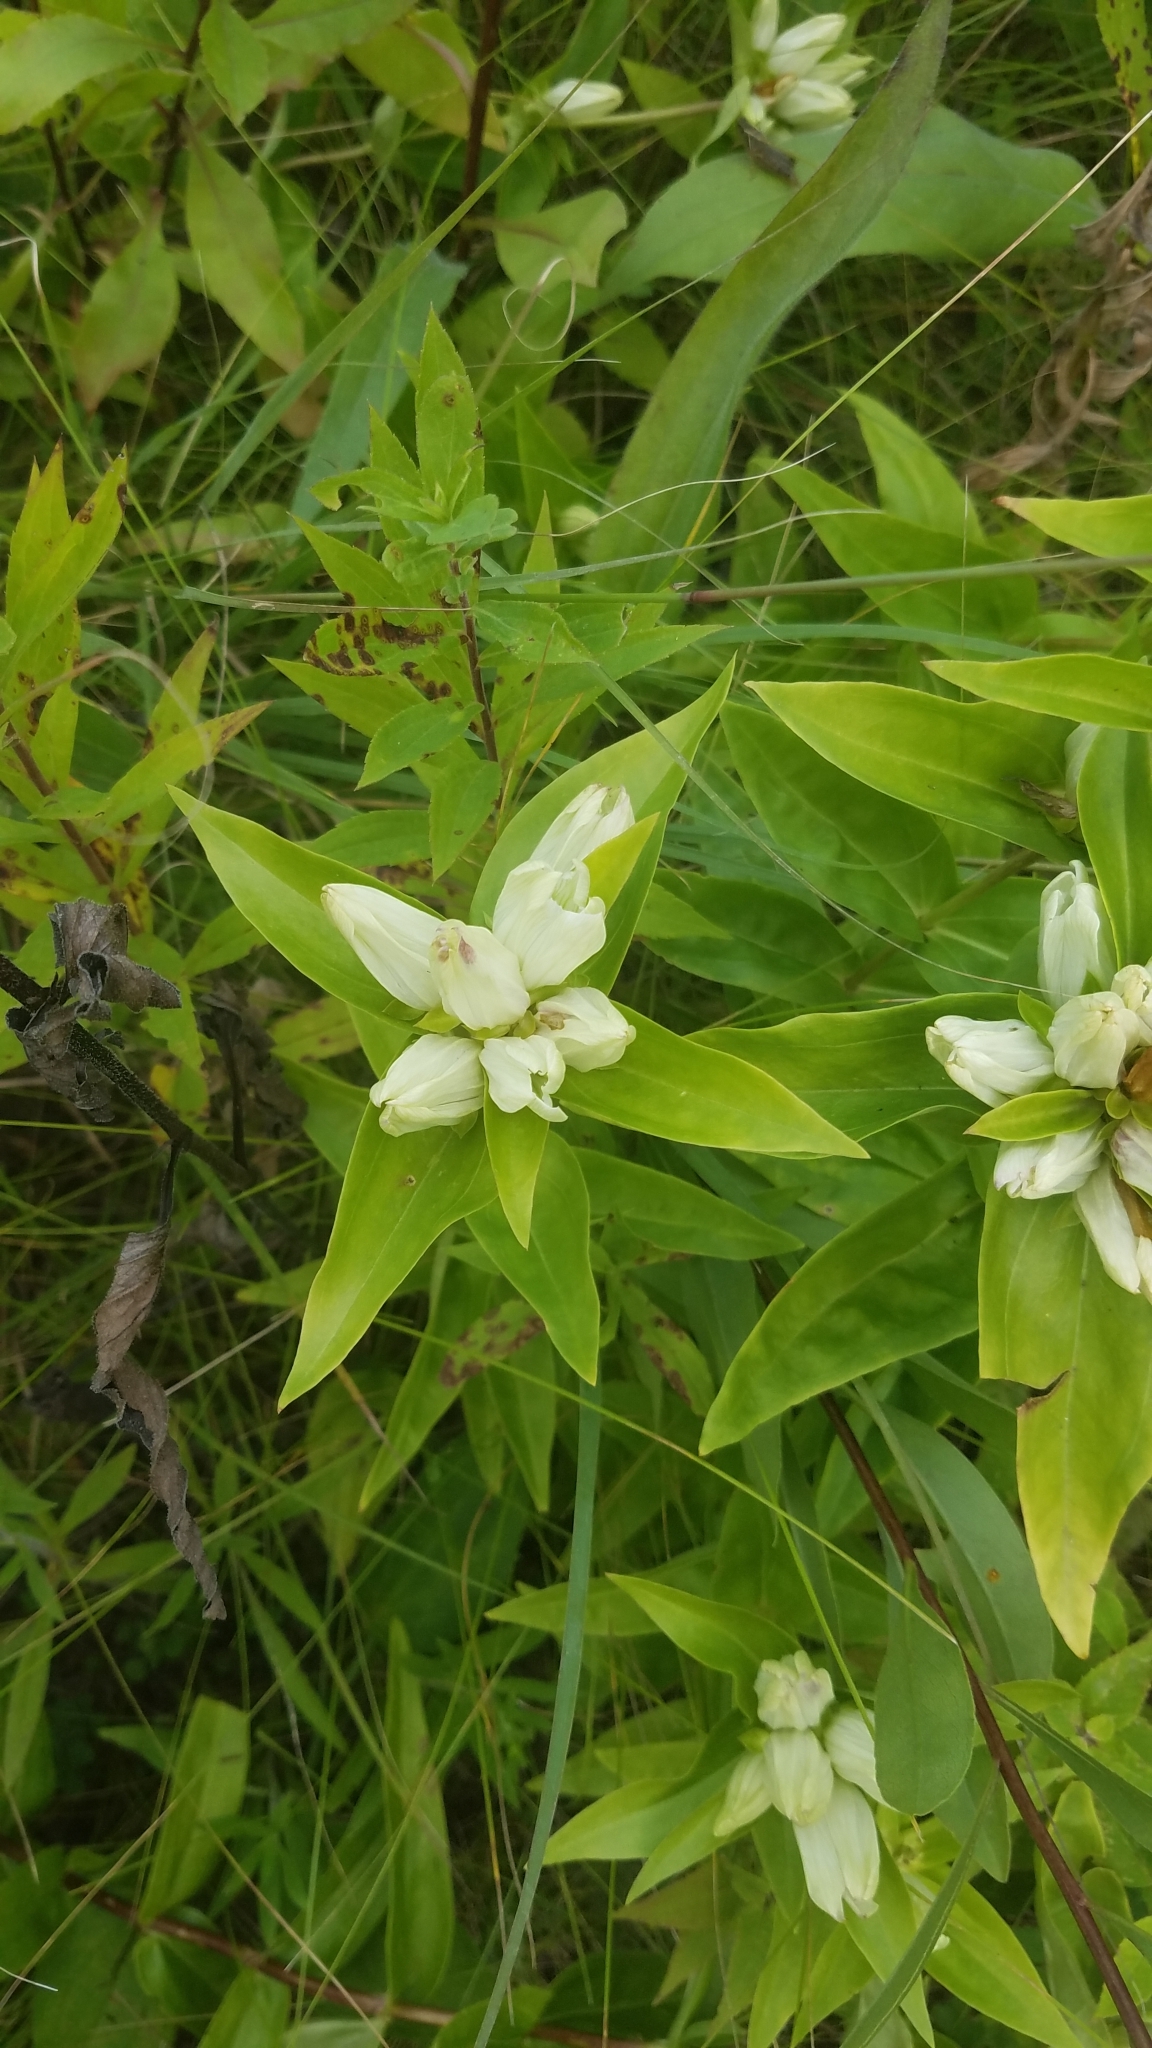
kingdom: Plantae
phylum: Tracheophyta
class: Magnoliopsida
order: Gentianales
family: Gentianaceae
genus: Gentiana
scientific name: Gentiana alba
